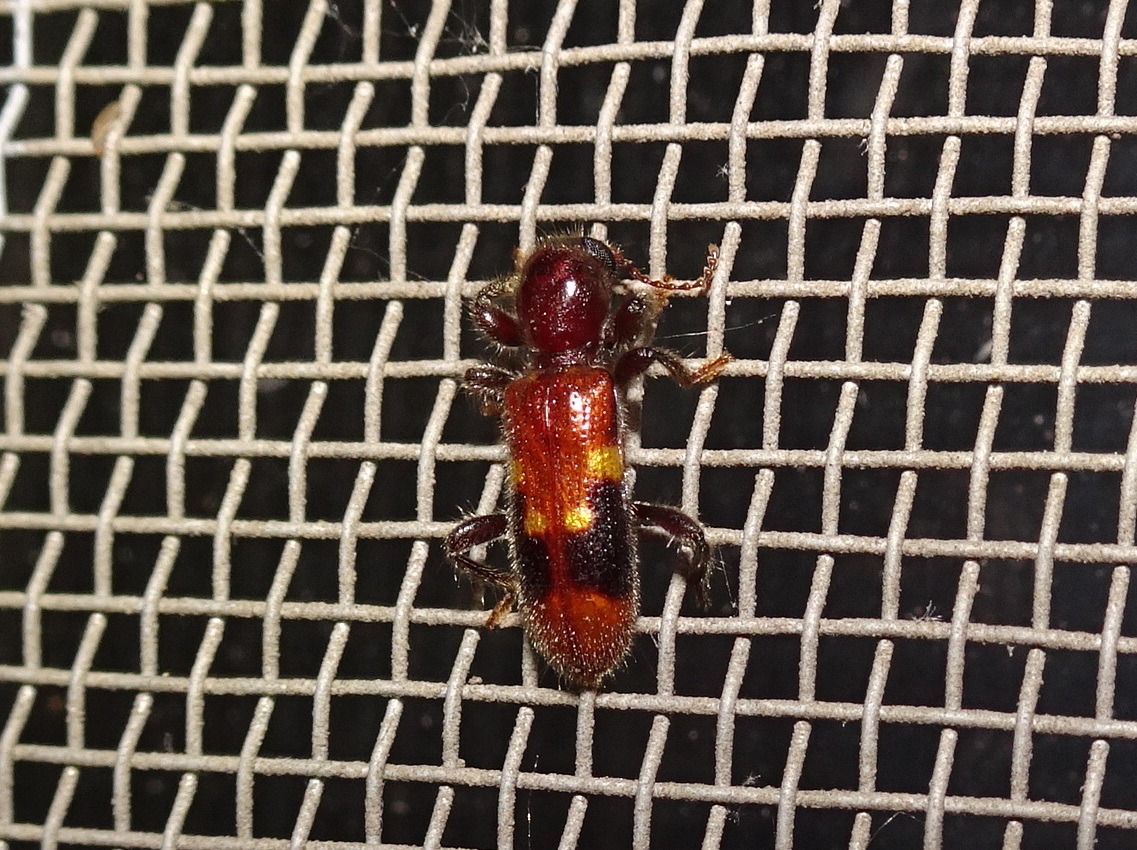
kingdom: Animalia
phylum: Arthropoda
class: Insecta
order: Coleoptera
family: Cleridae
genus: Priocera
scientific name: Priocera castanea
